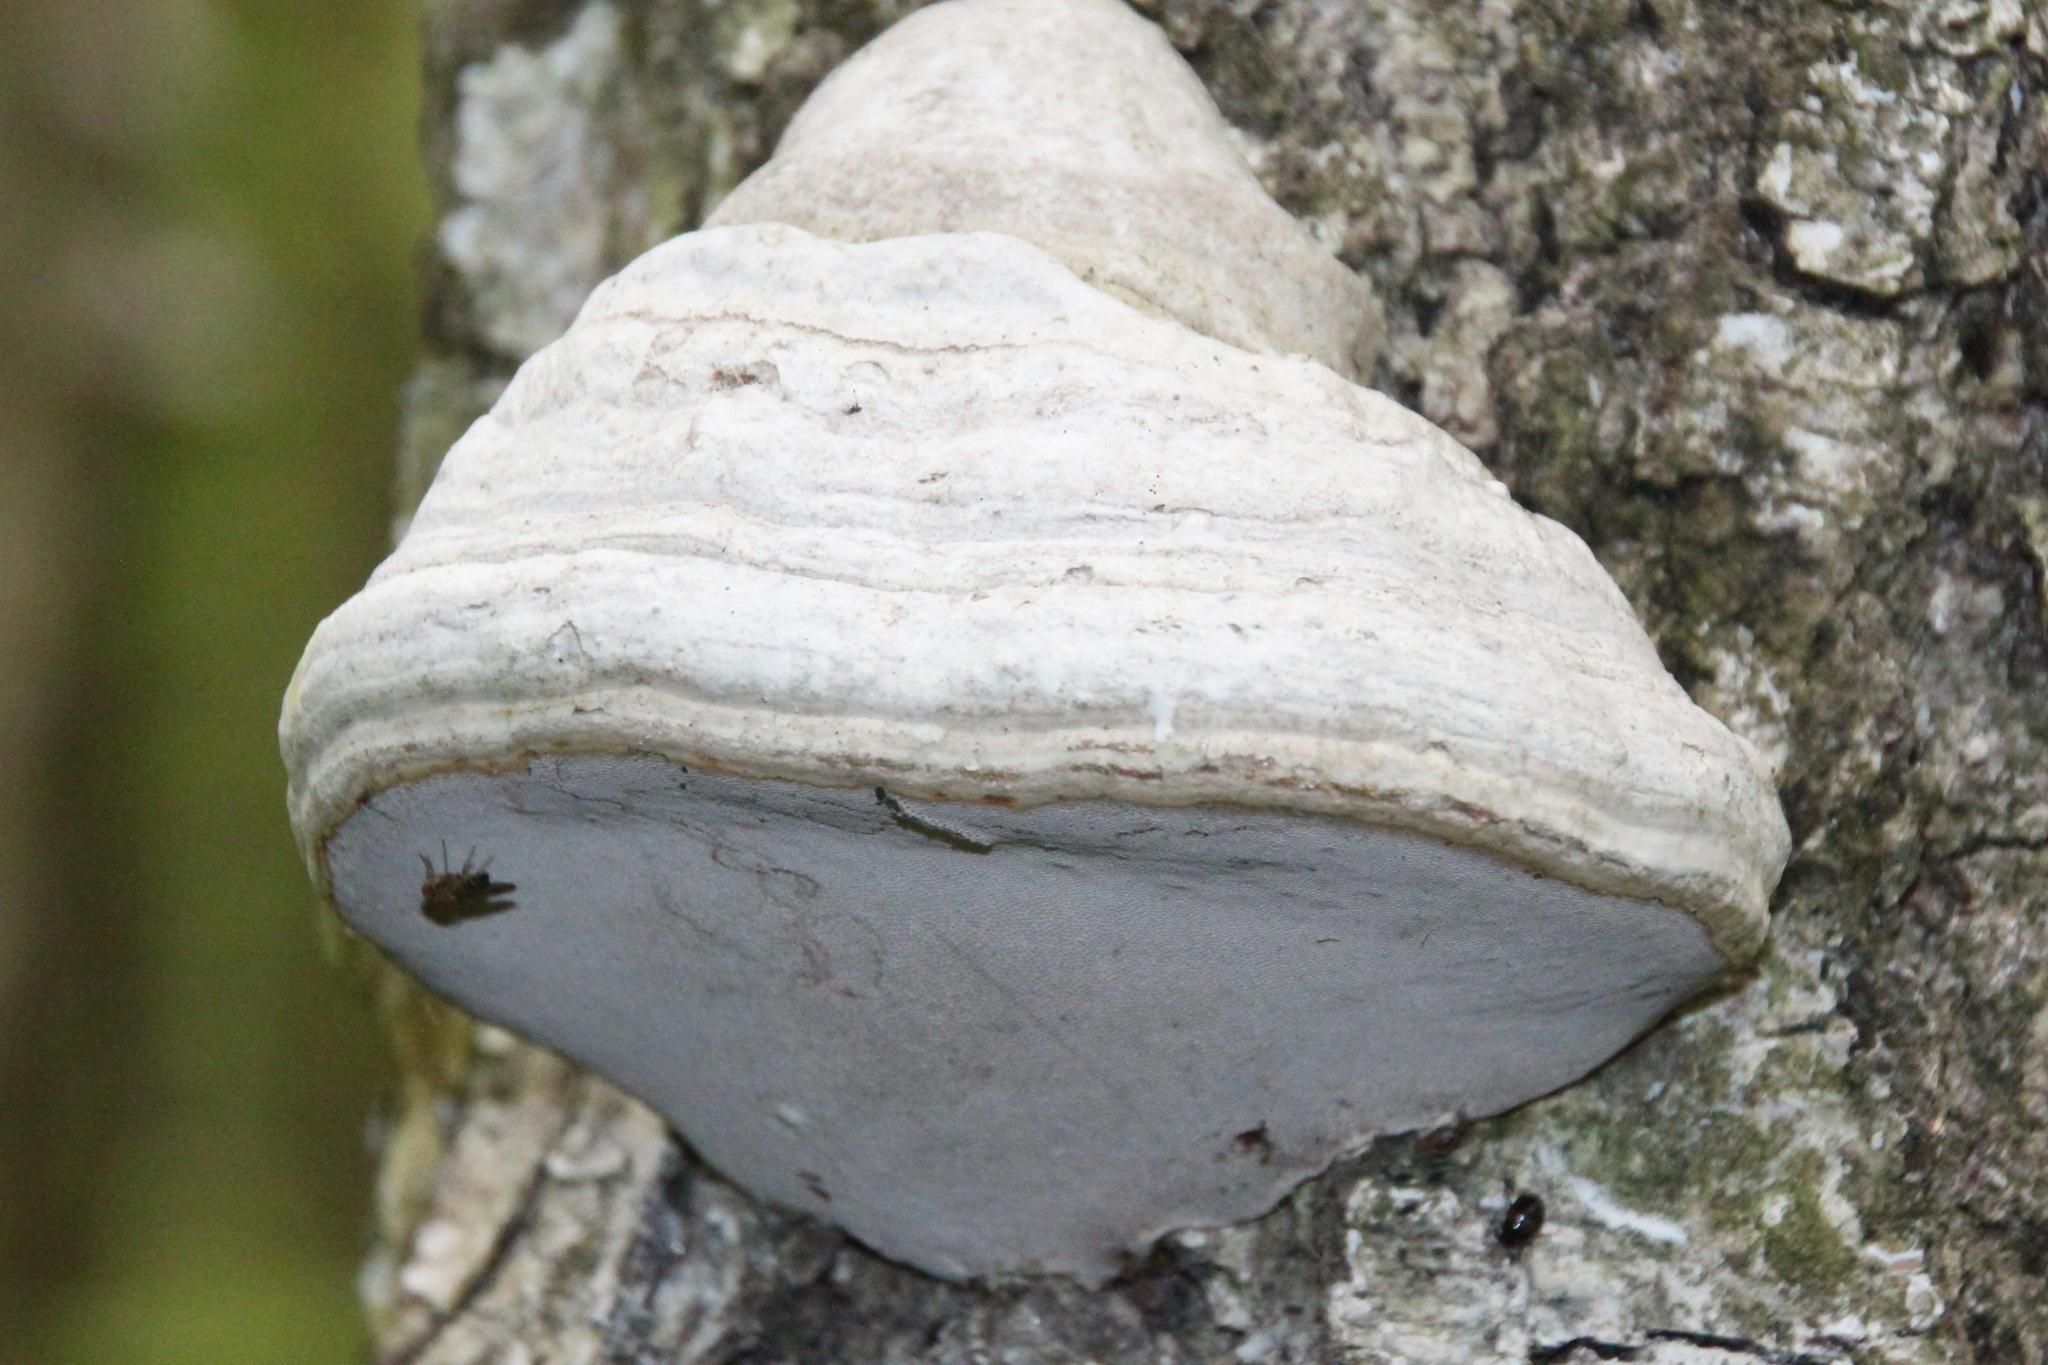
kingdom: Fungi
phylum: Basidiomycota
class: Agaricomycetes
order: Polyporales
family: Polyporaceae
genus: Fomes
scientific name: Fomes fomentarius
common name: Hoof fungus
